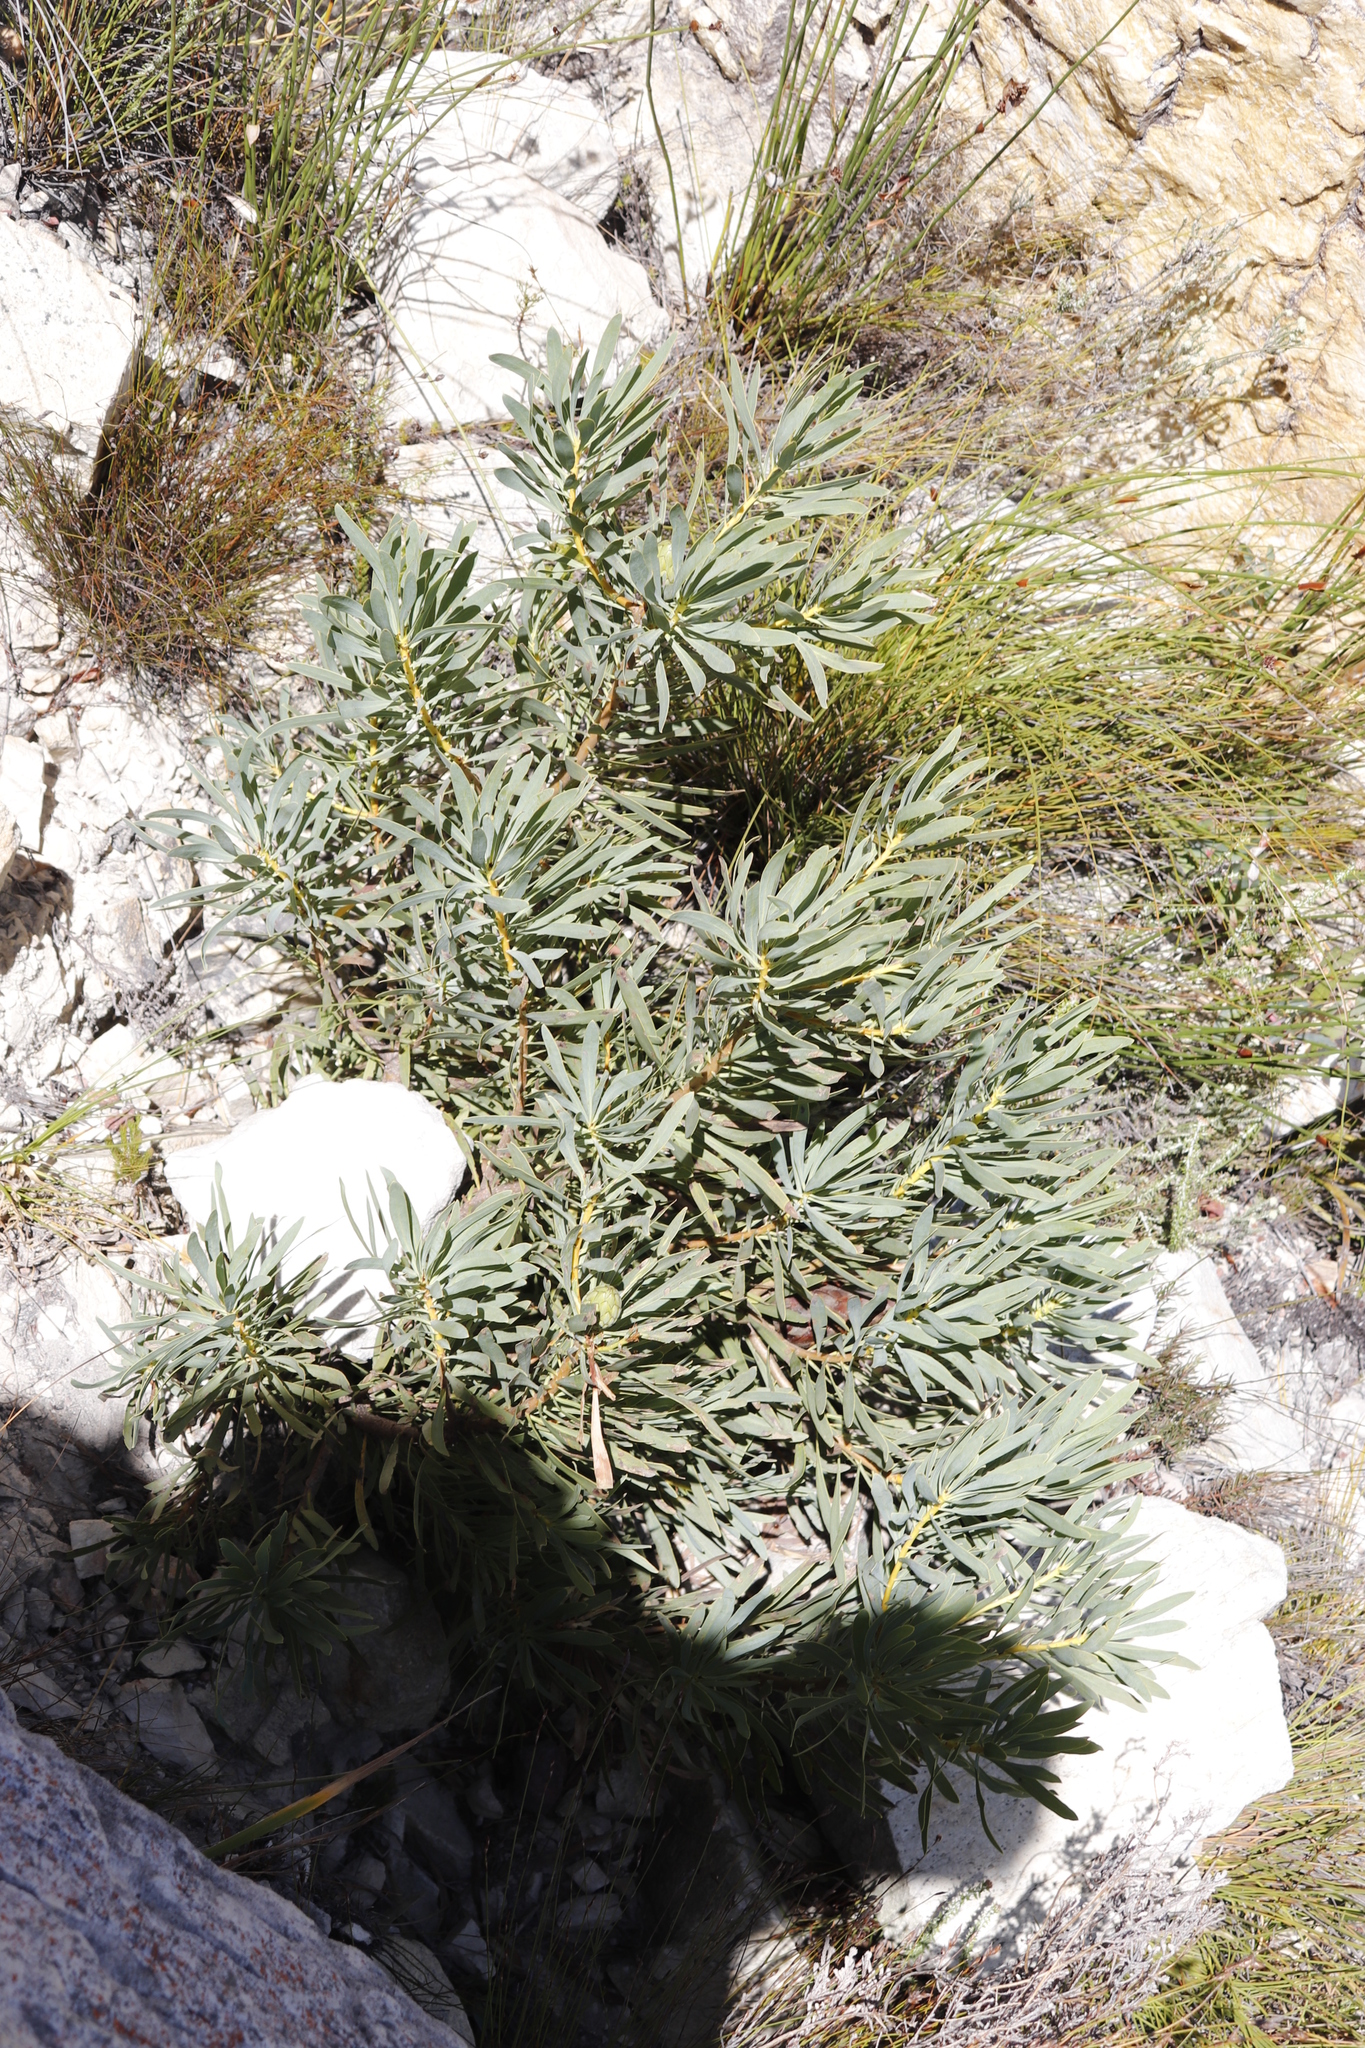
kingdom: Plantae
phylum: Tracheophyta
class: Magnoliopsida
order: Proteales
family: Proteaceae
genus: Protea
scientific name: Protea repens
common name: Sugarbush
